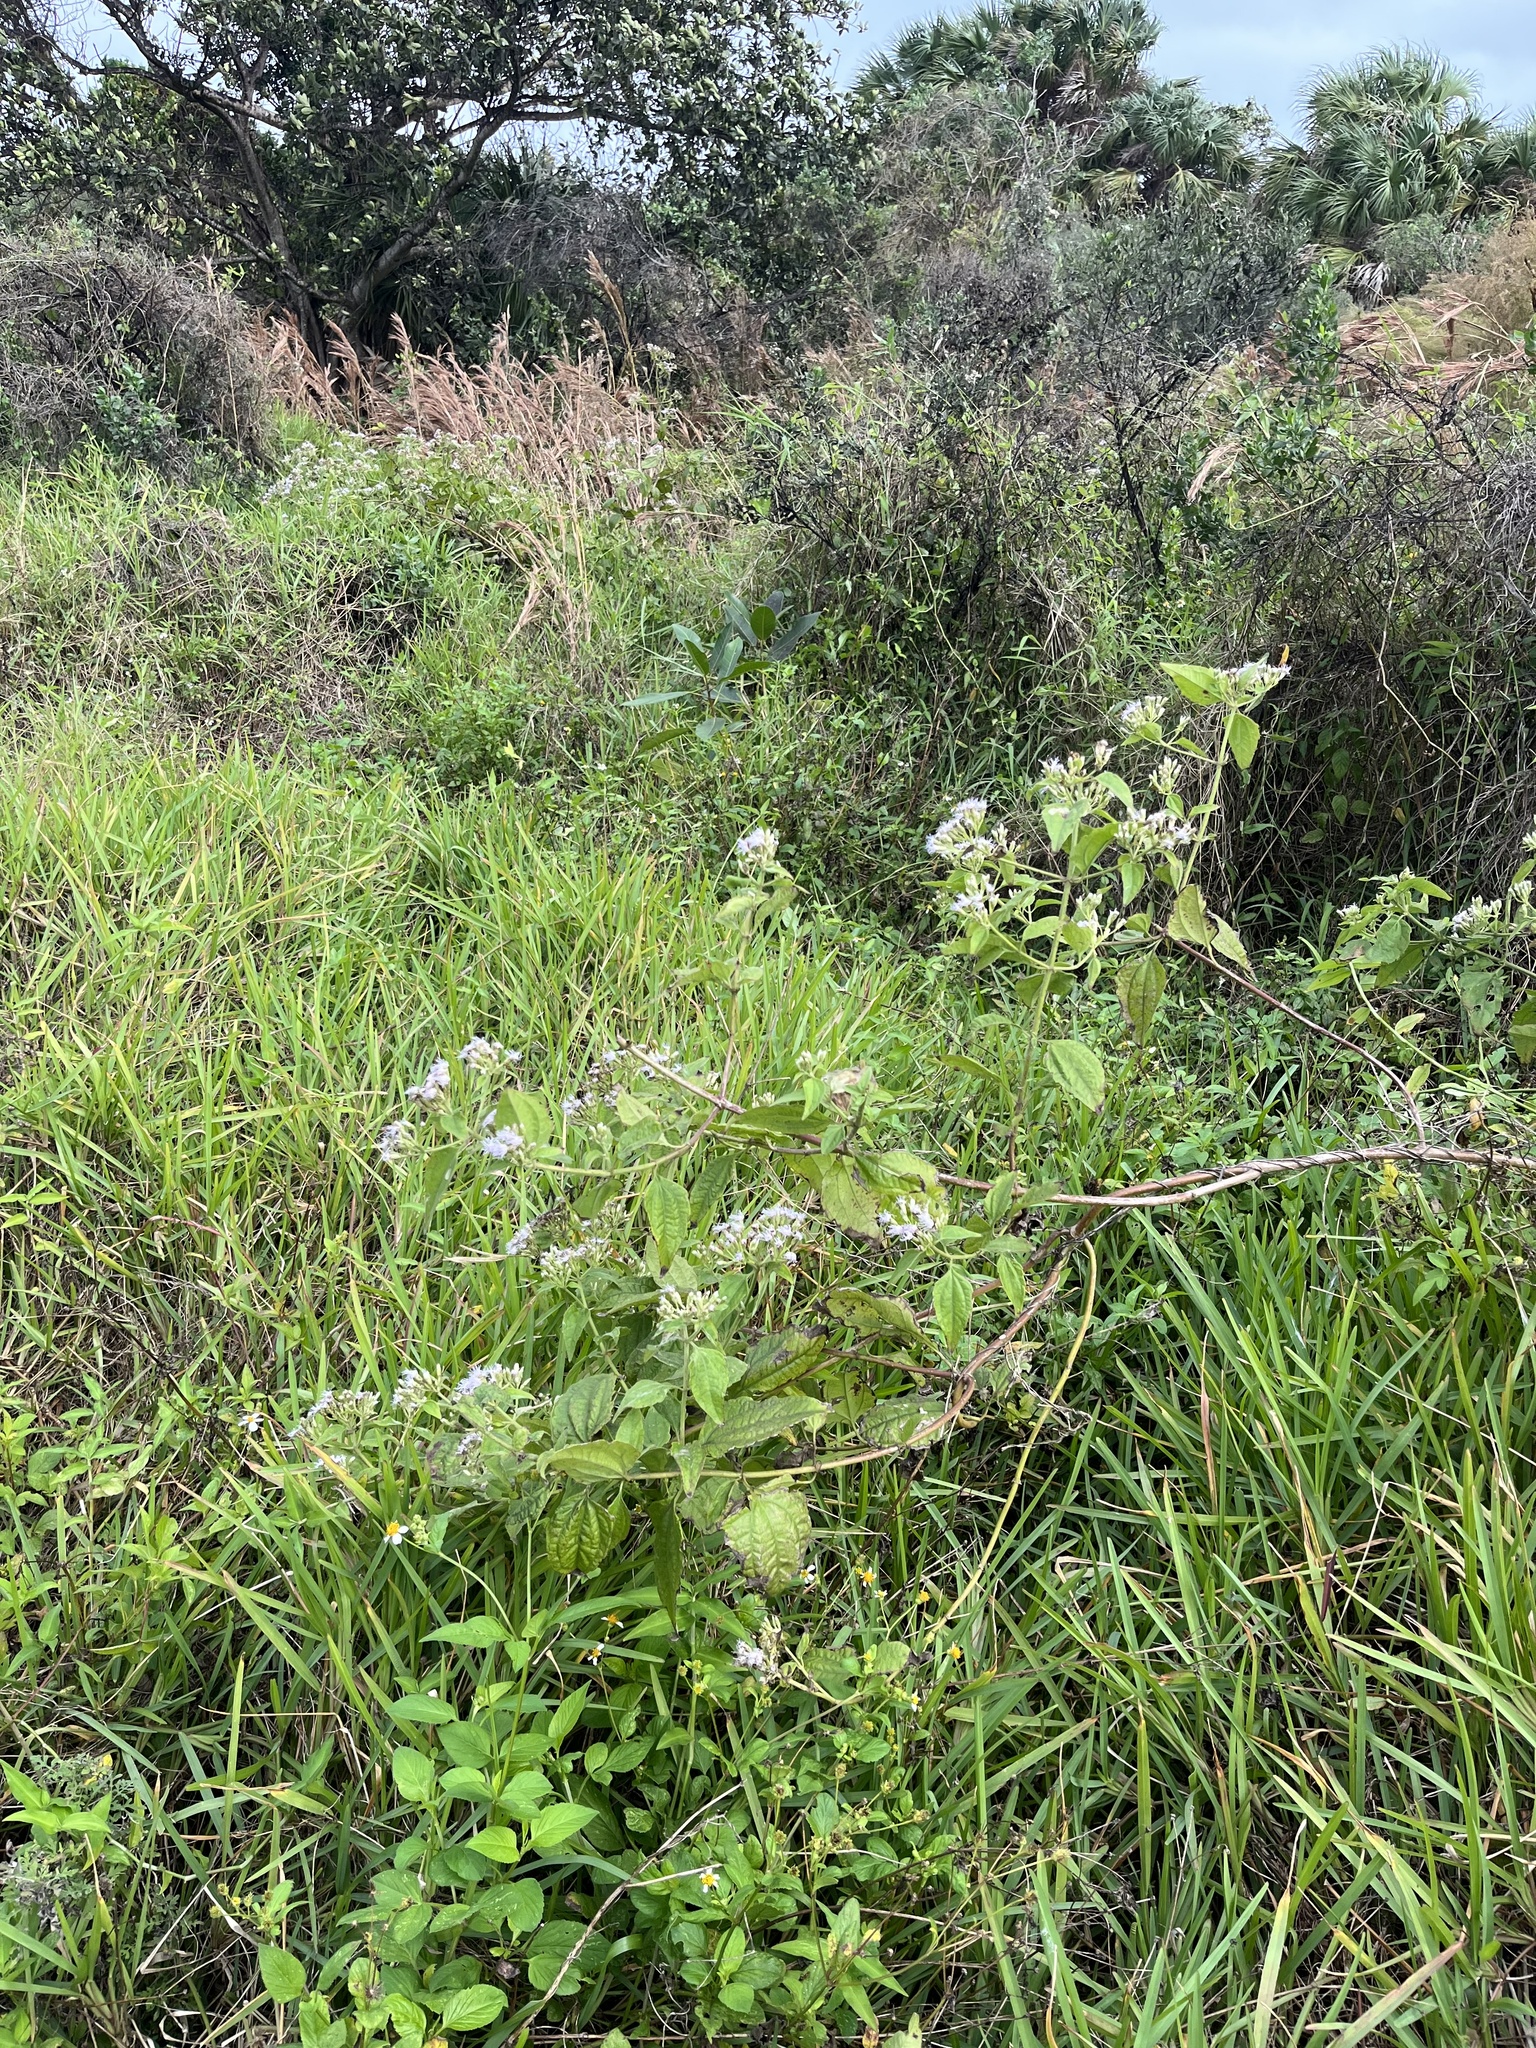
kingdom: Plantae
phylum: Tracheophyta
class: Magnoliopsida
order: Asterales
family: Asteraceae
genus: Chromolaena
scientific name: Chromolaena odorata
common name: Siamweed
